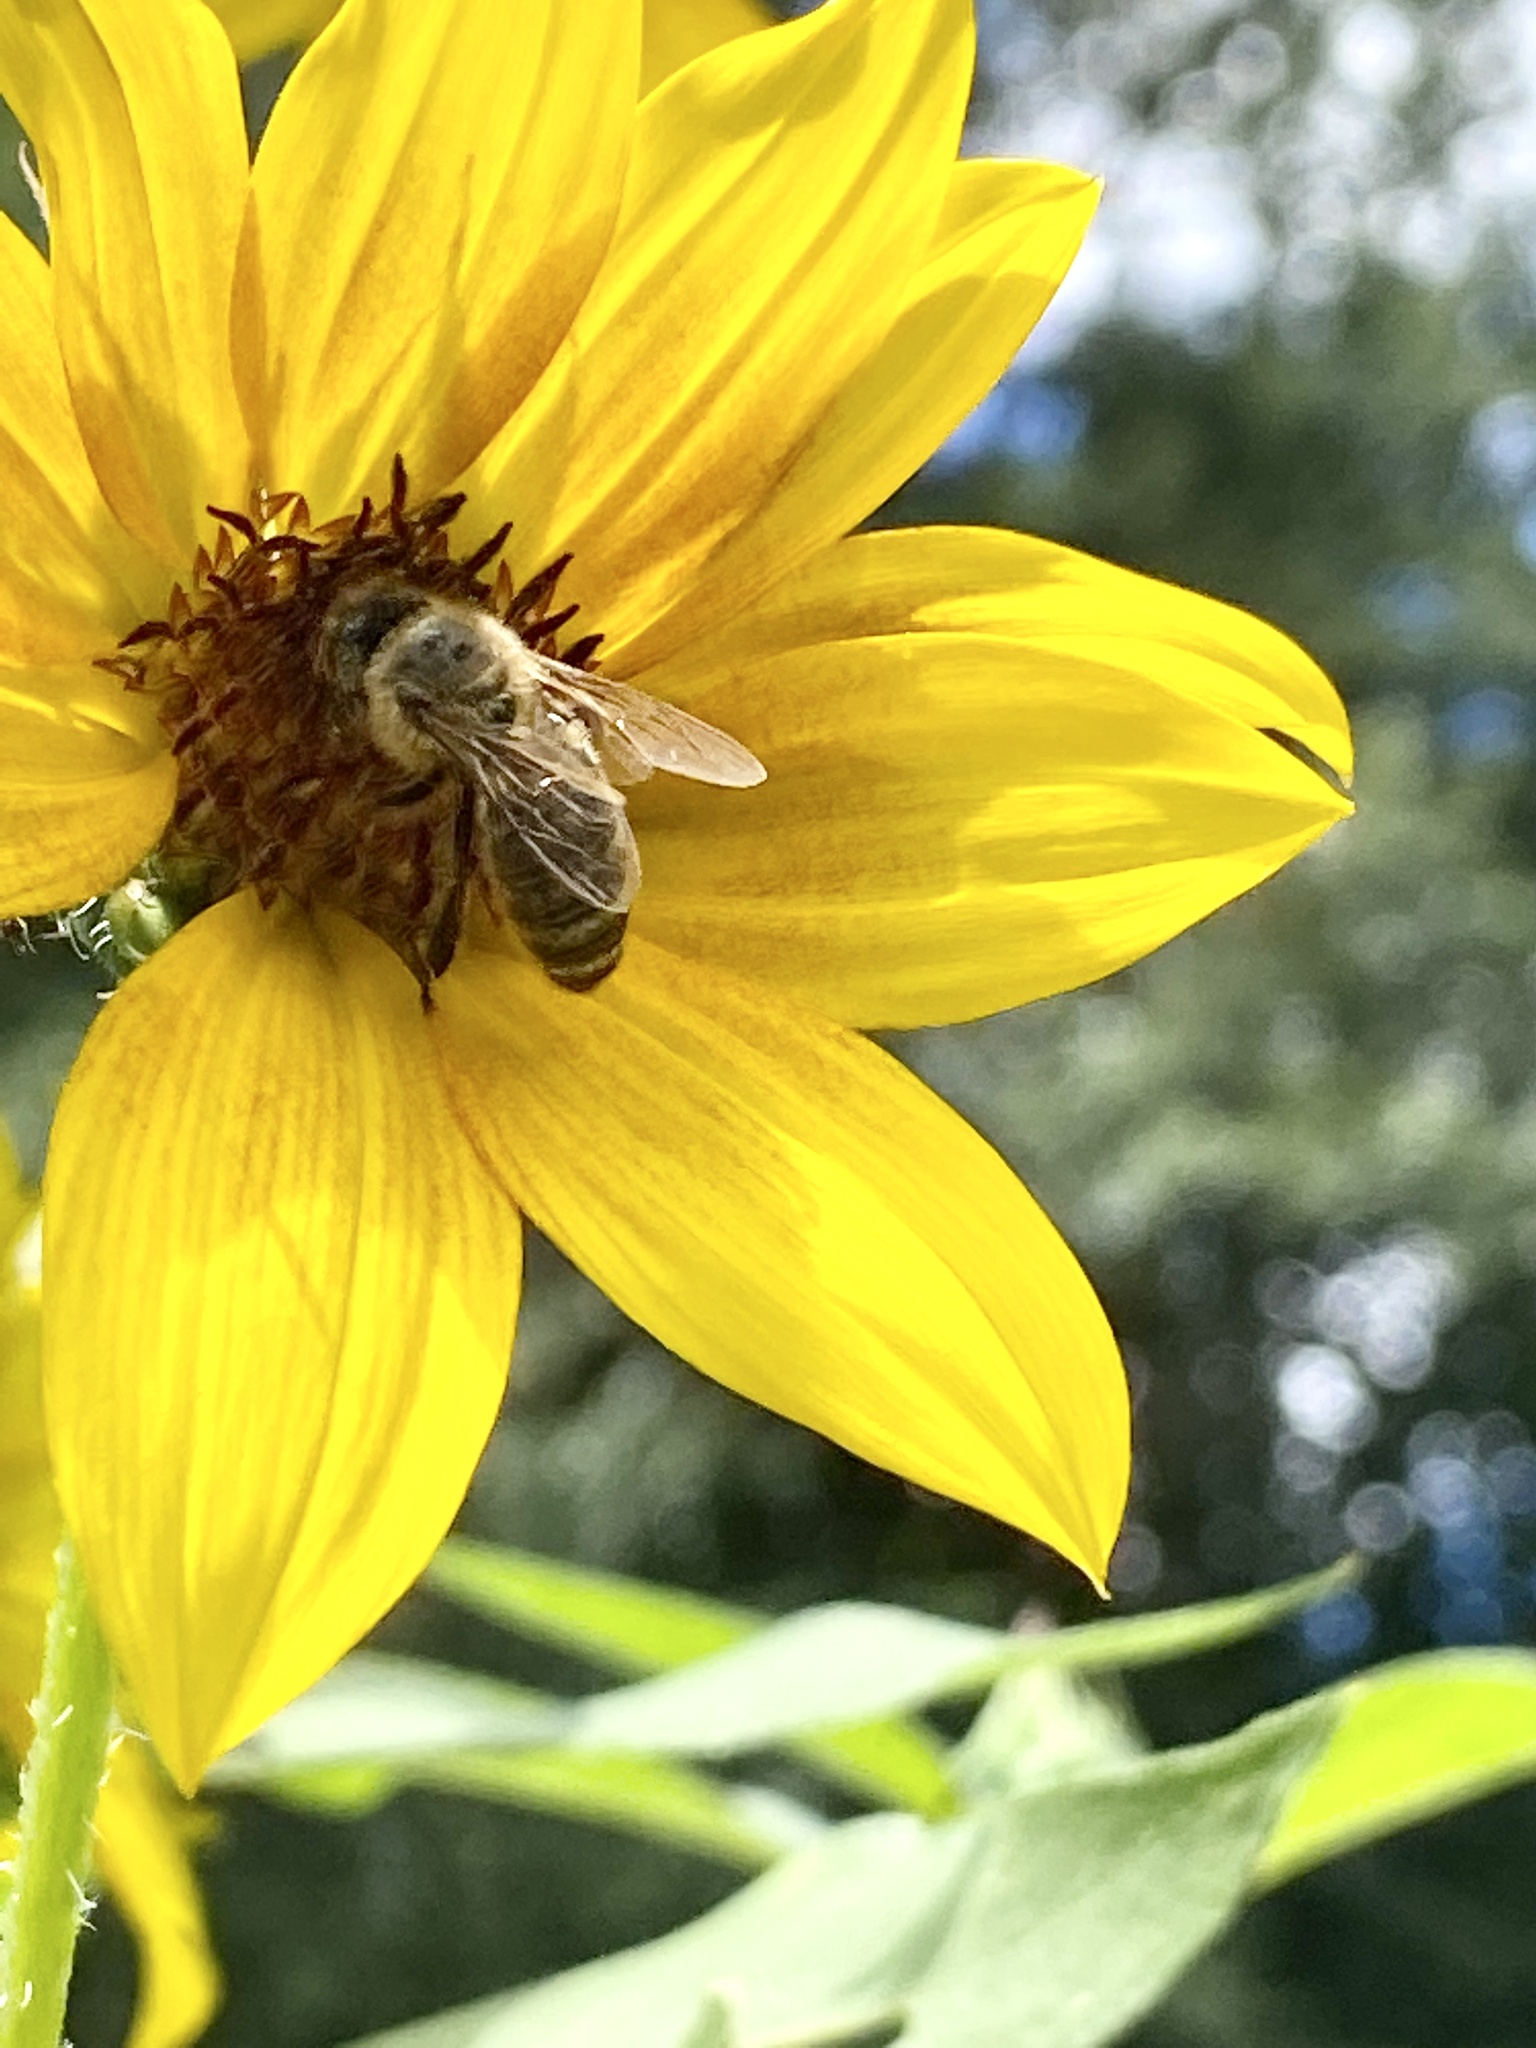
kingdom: Animalia
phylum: Arthropoda
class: Insecta
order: Hymenoptera
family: Apidae
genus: Apis
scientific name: Apis mellifera
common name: Honey bee
